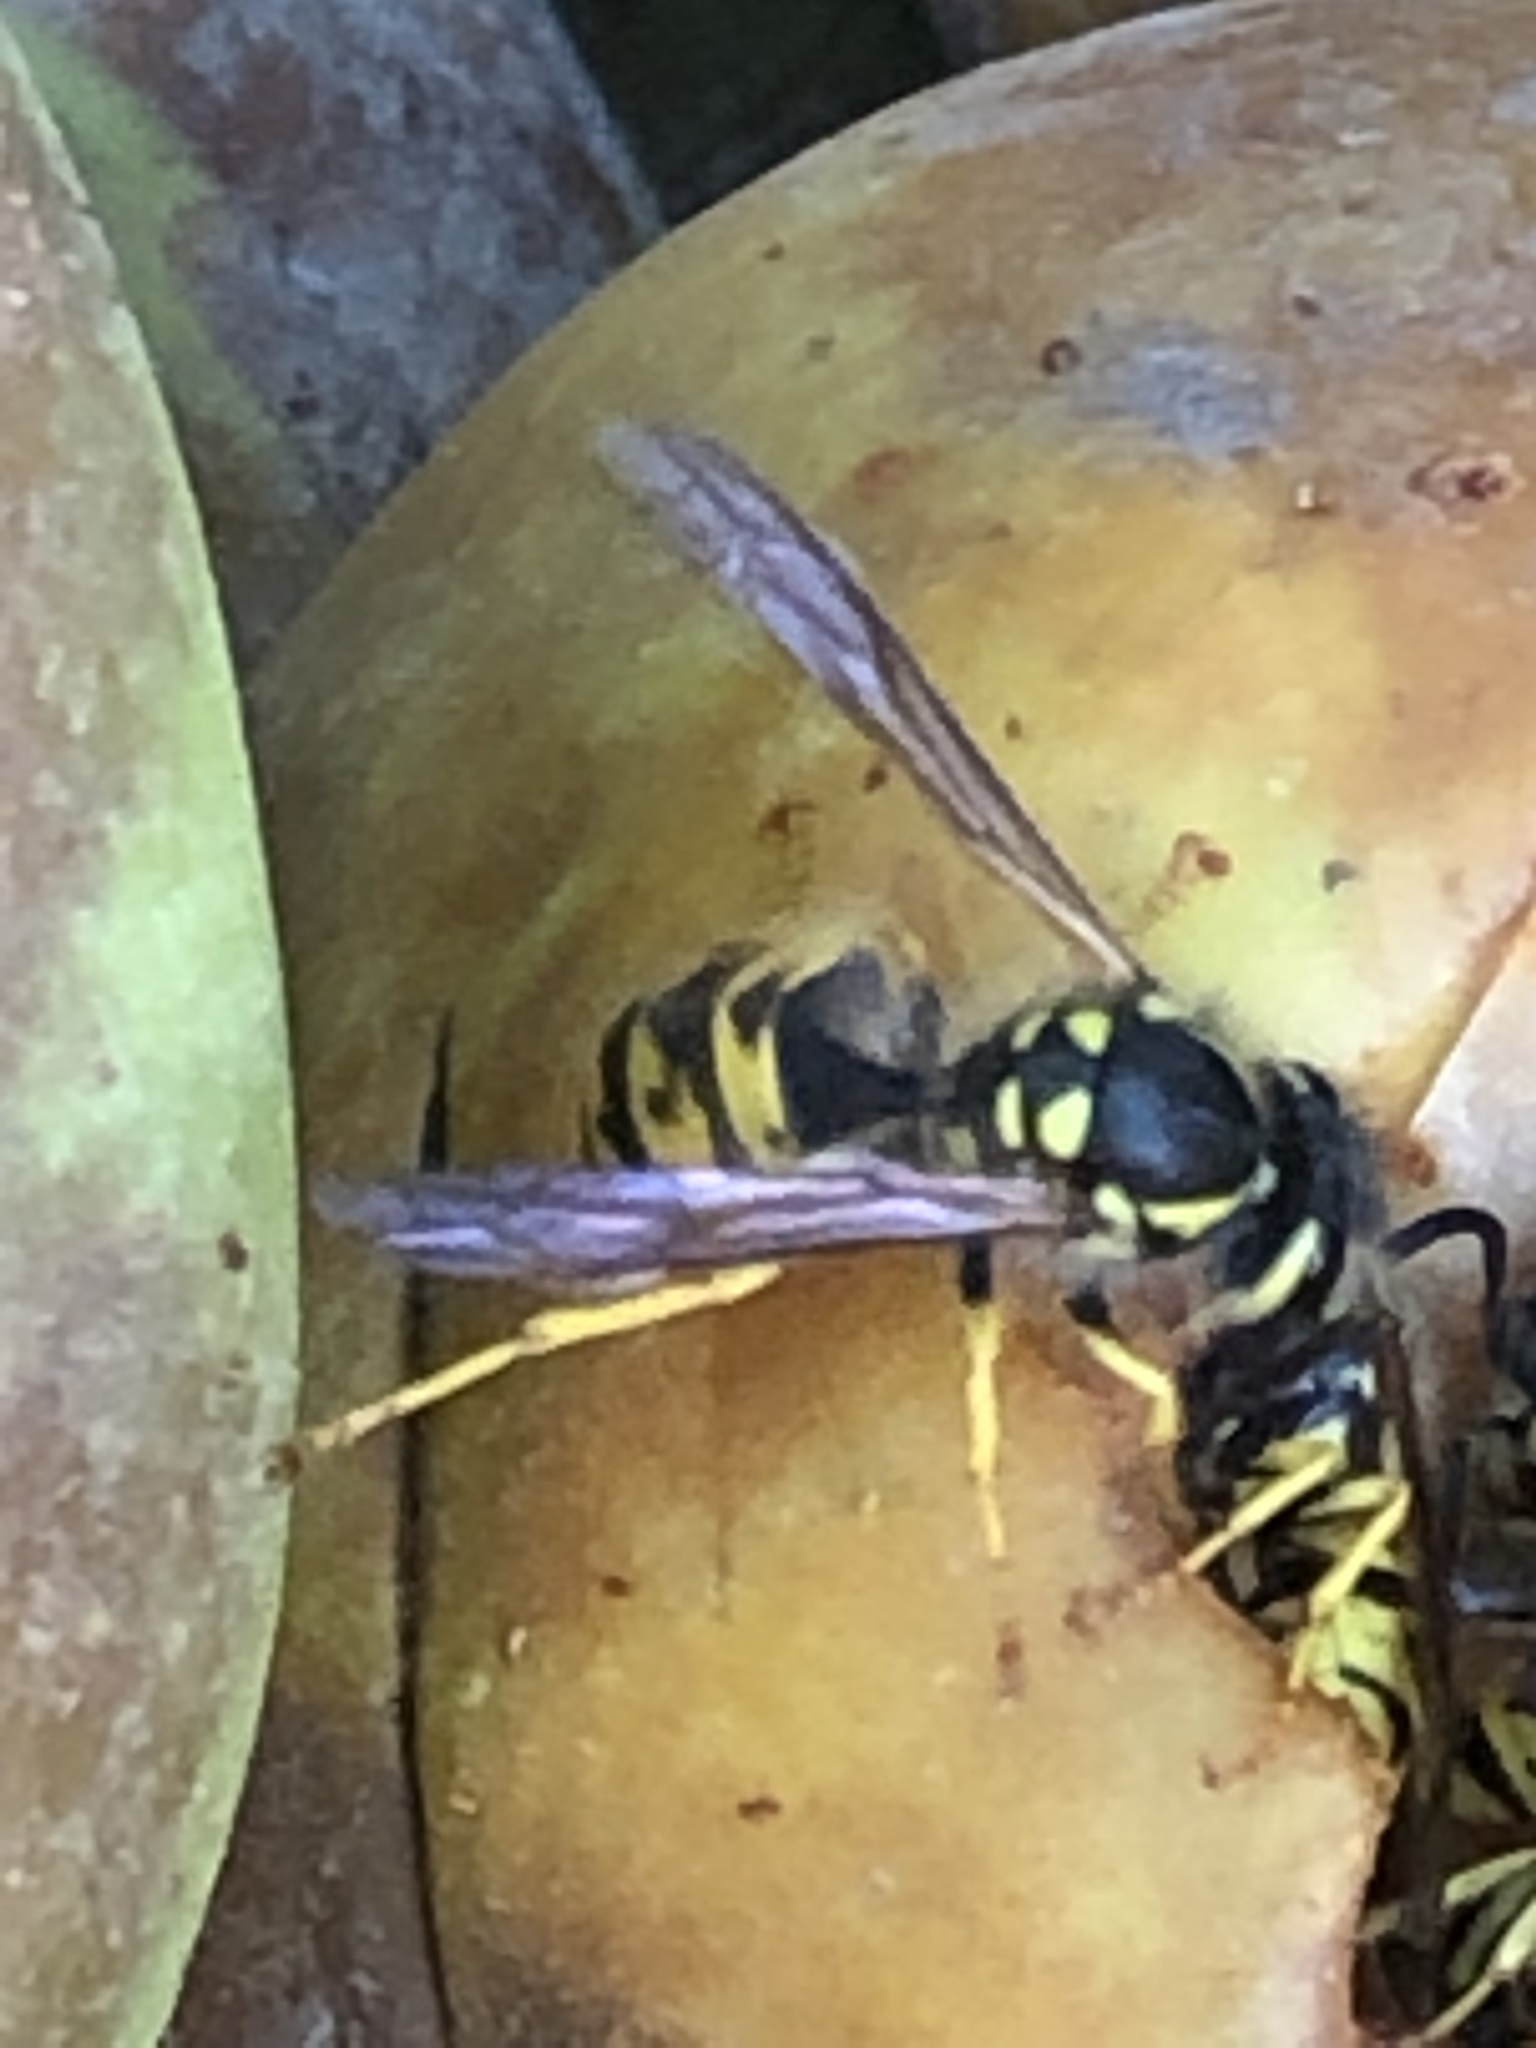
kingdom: Animalia
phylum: Arthropoda
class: Insecta
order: Hymenoptera
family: Vespidae
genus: Vespula
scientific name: Vespula germanica
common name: German wasp
